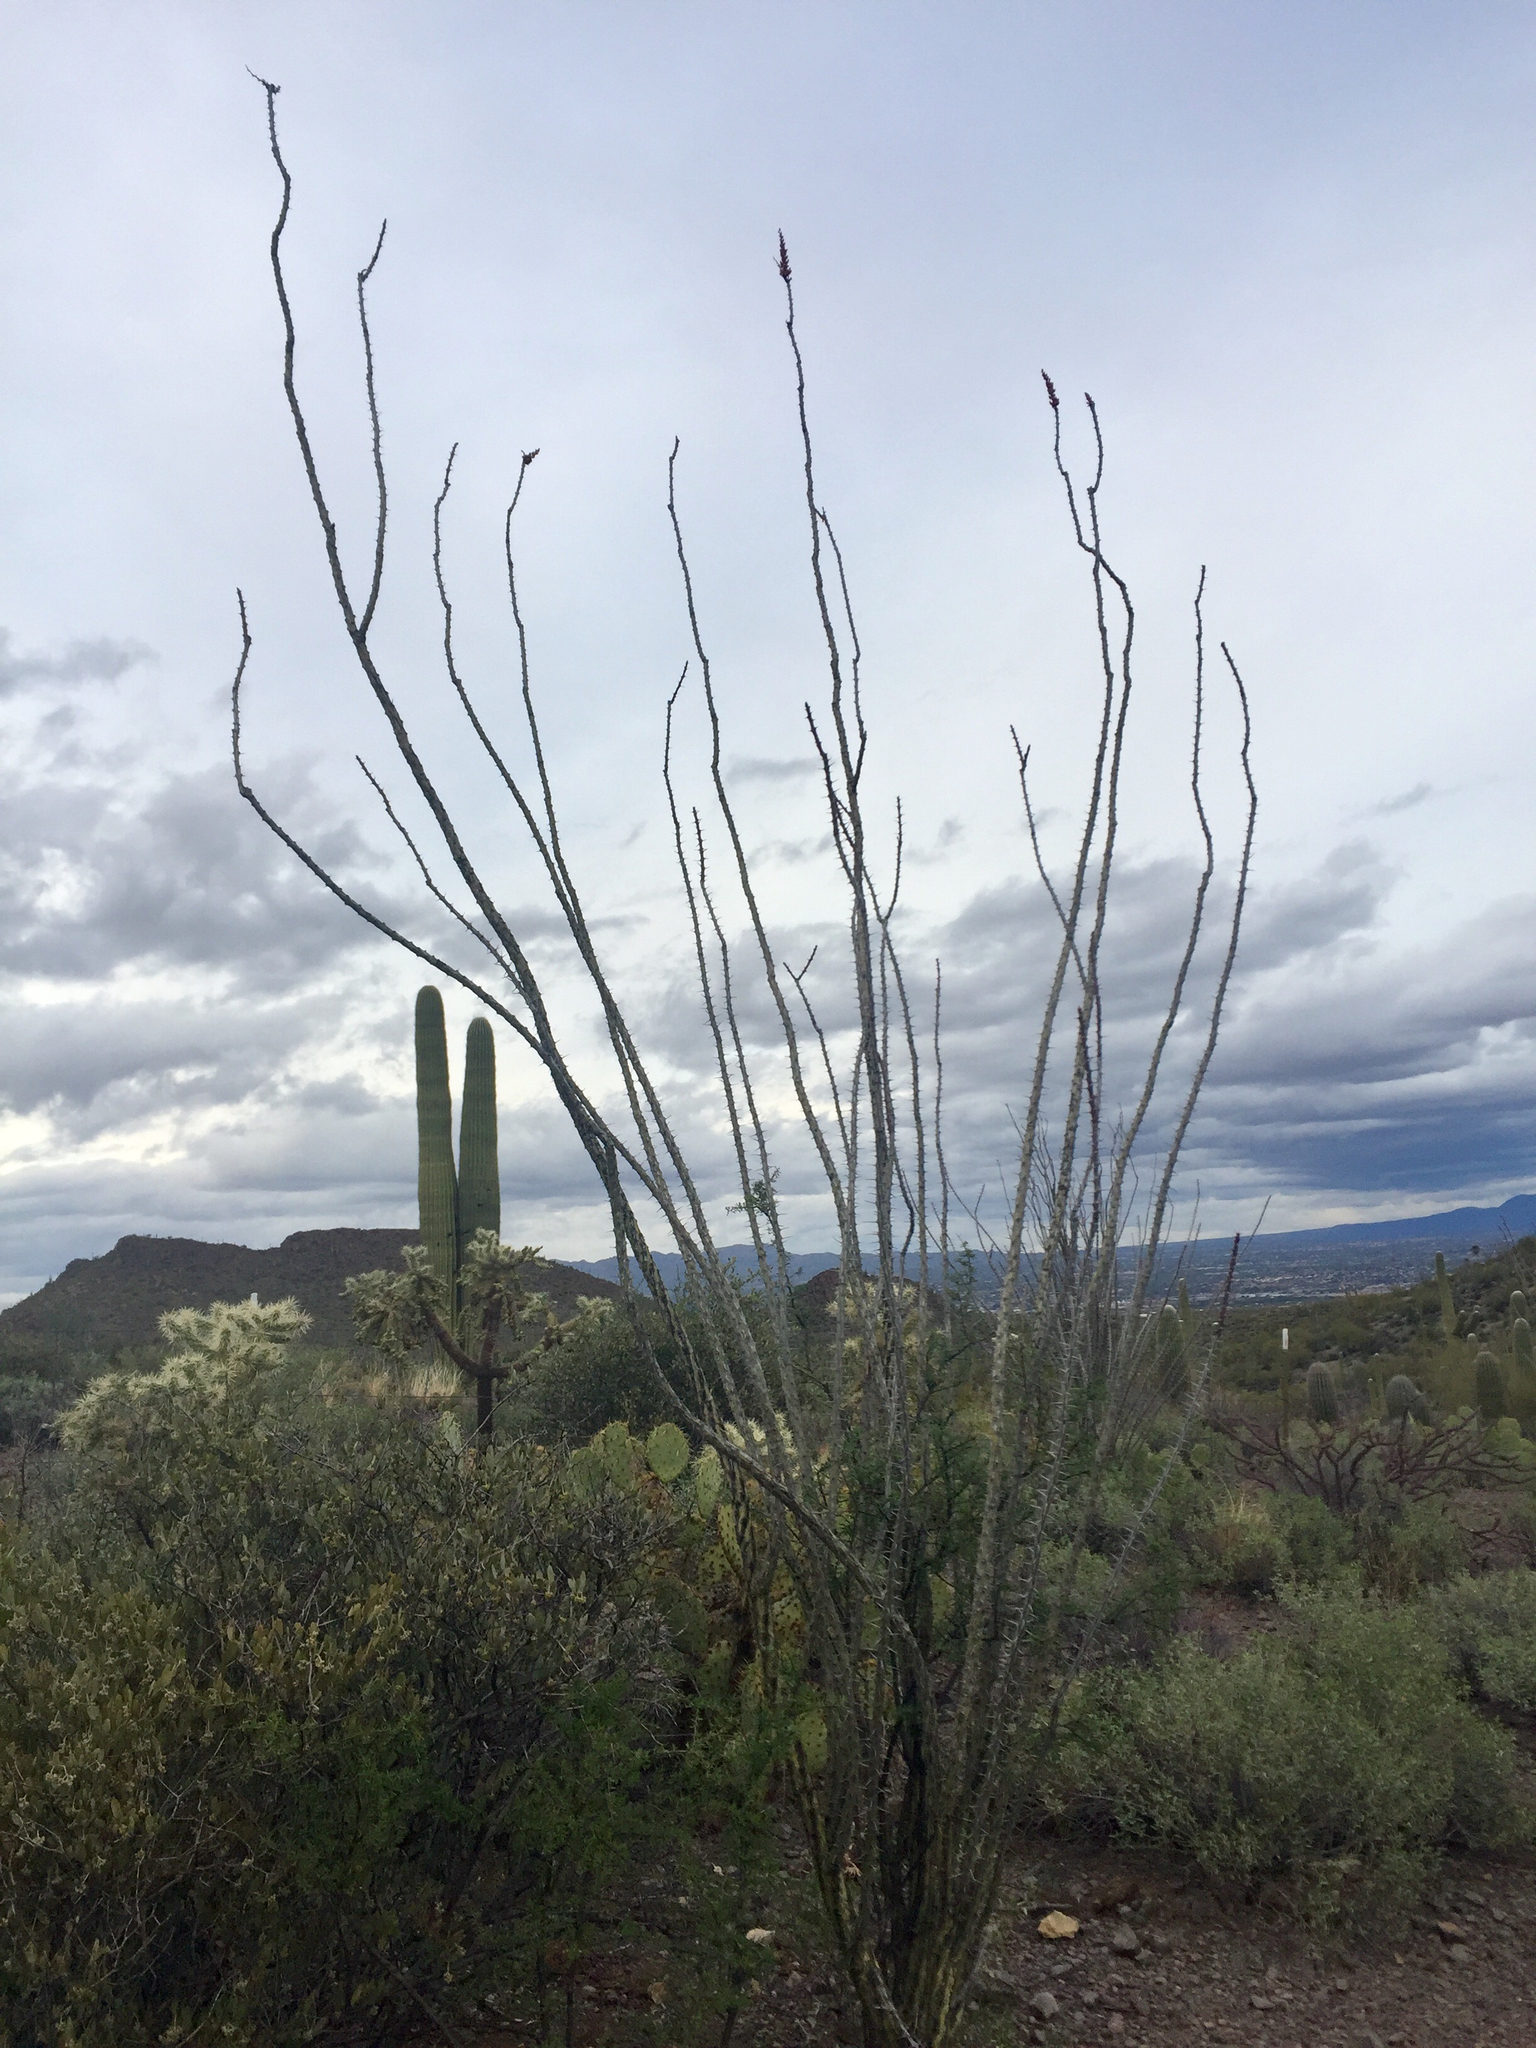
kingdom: Plantae
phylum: Tracheophyta
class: Magnoliopsida
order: Ericales
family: Fouquieriaceae
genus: Fouquieria
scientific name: Fouquieria splendens
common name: Vine-cactus
